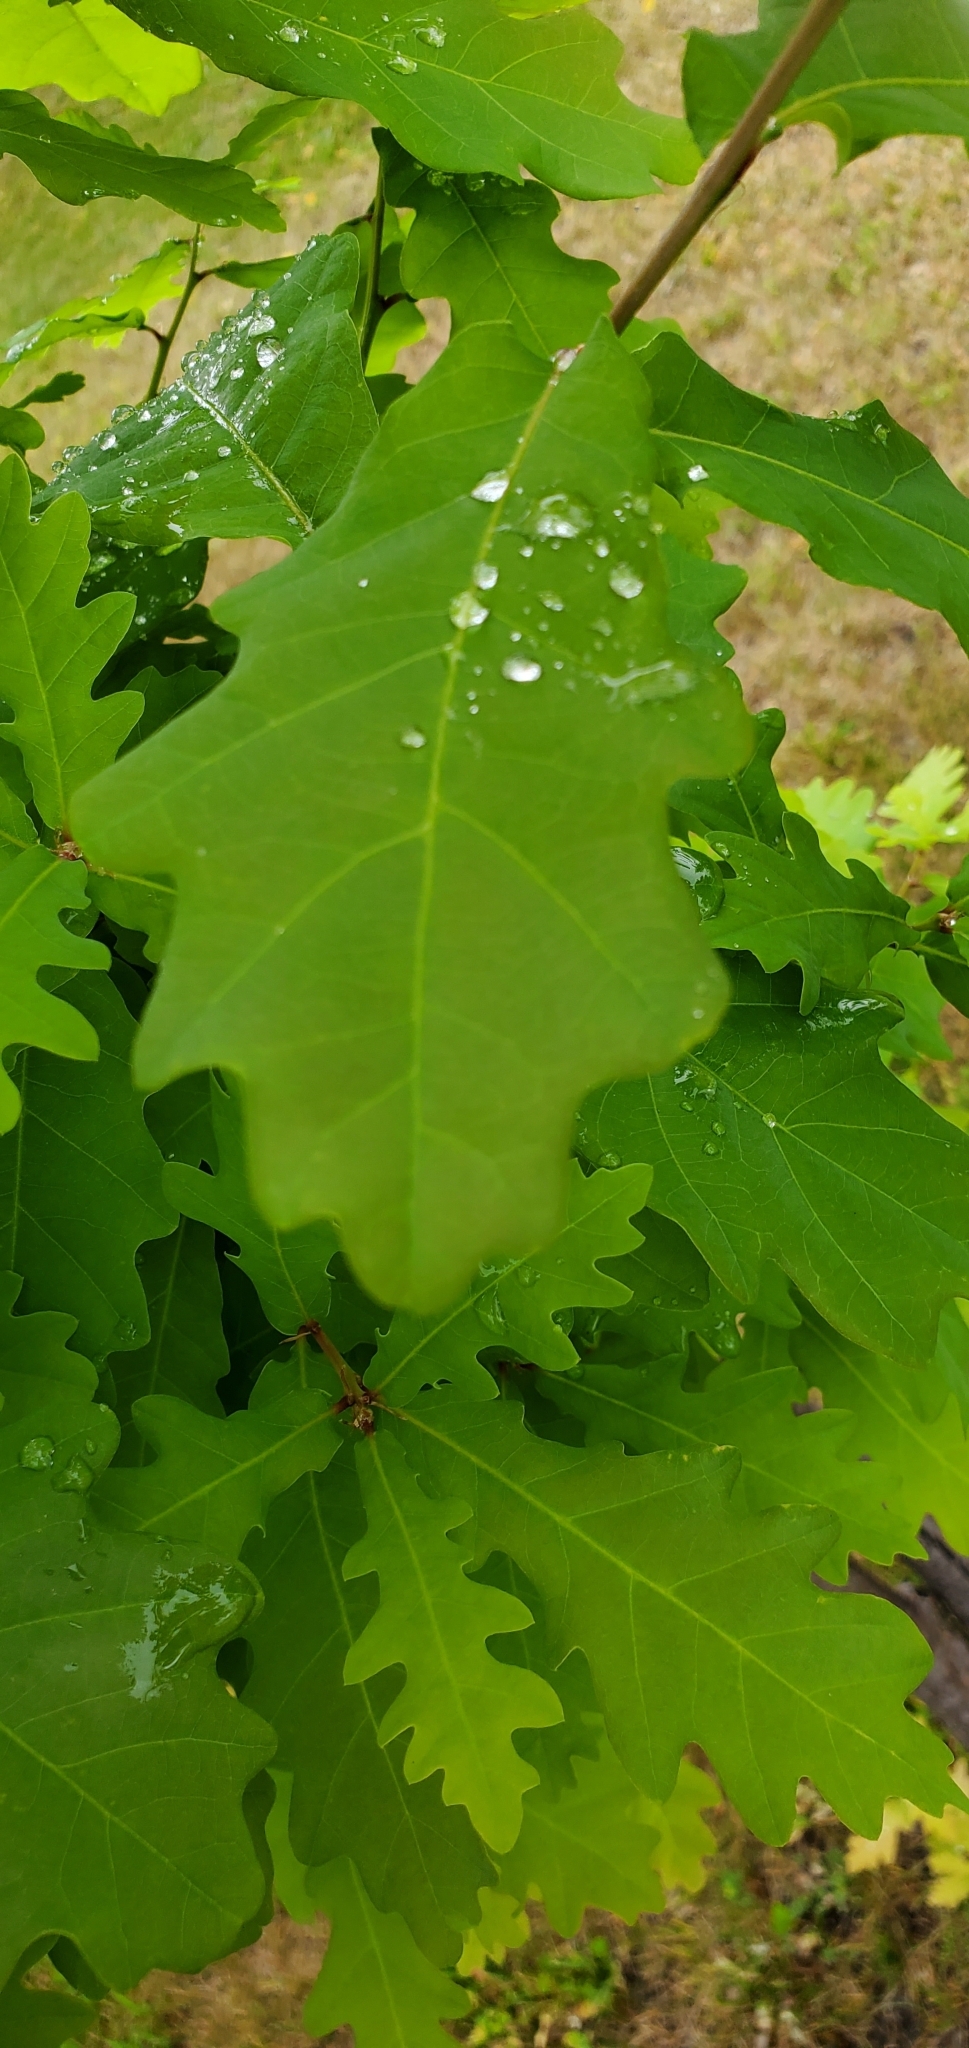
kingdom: Plantae
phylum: Tracheophyta
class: Magnoliopsida
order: Fagales
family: Fagaceae
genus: Quercus
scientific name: Quercus robur
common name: Pedunculate oak
